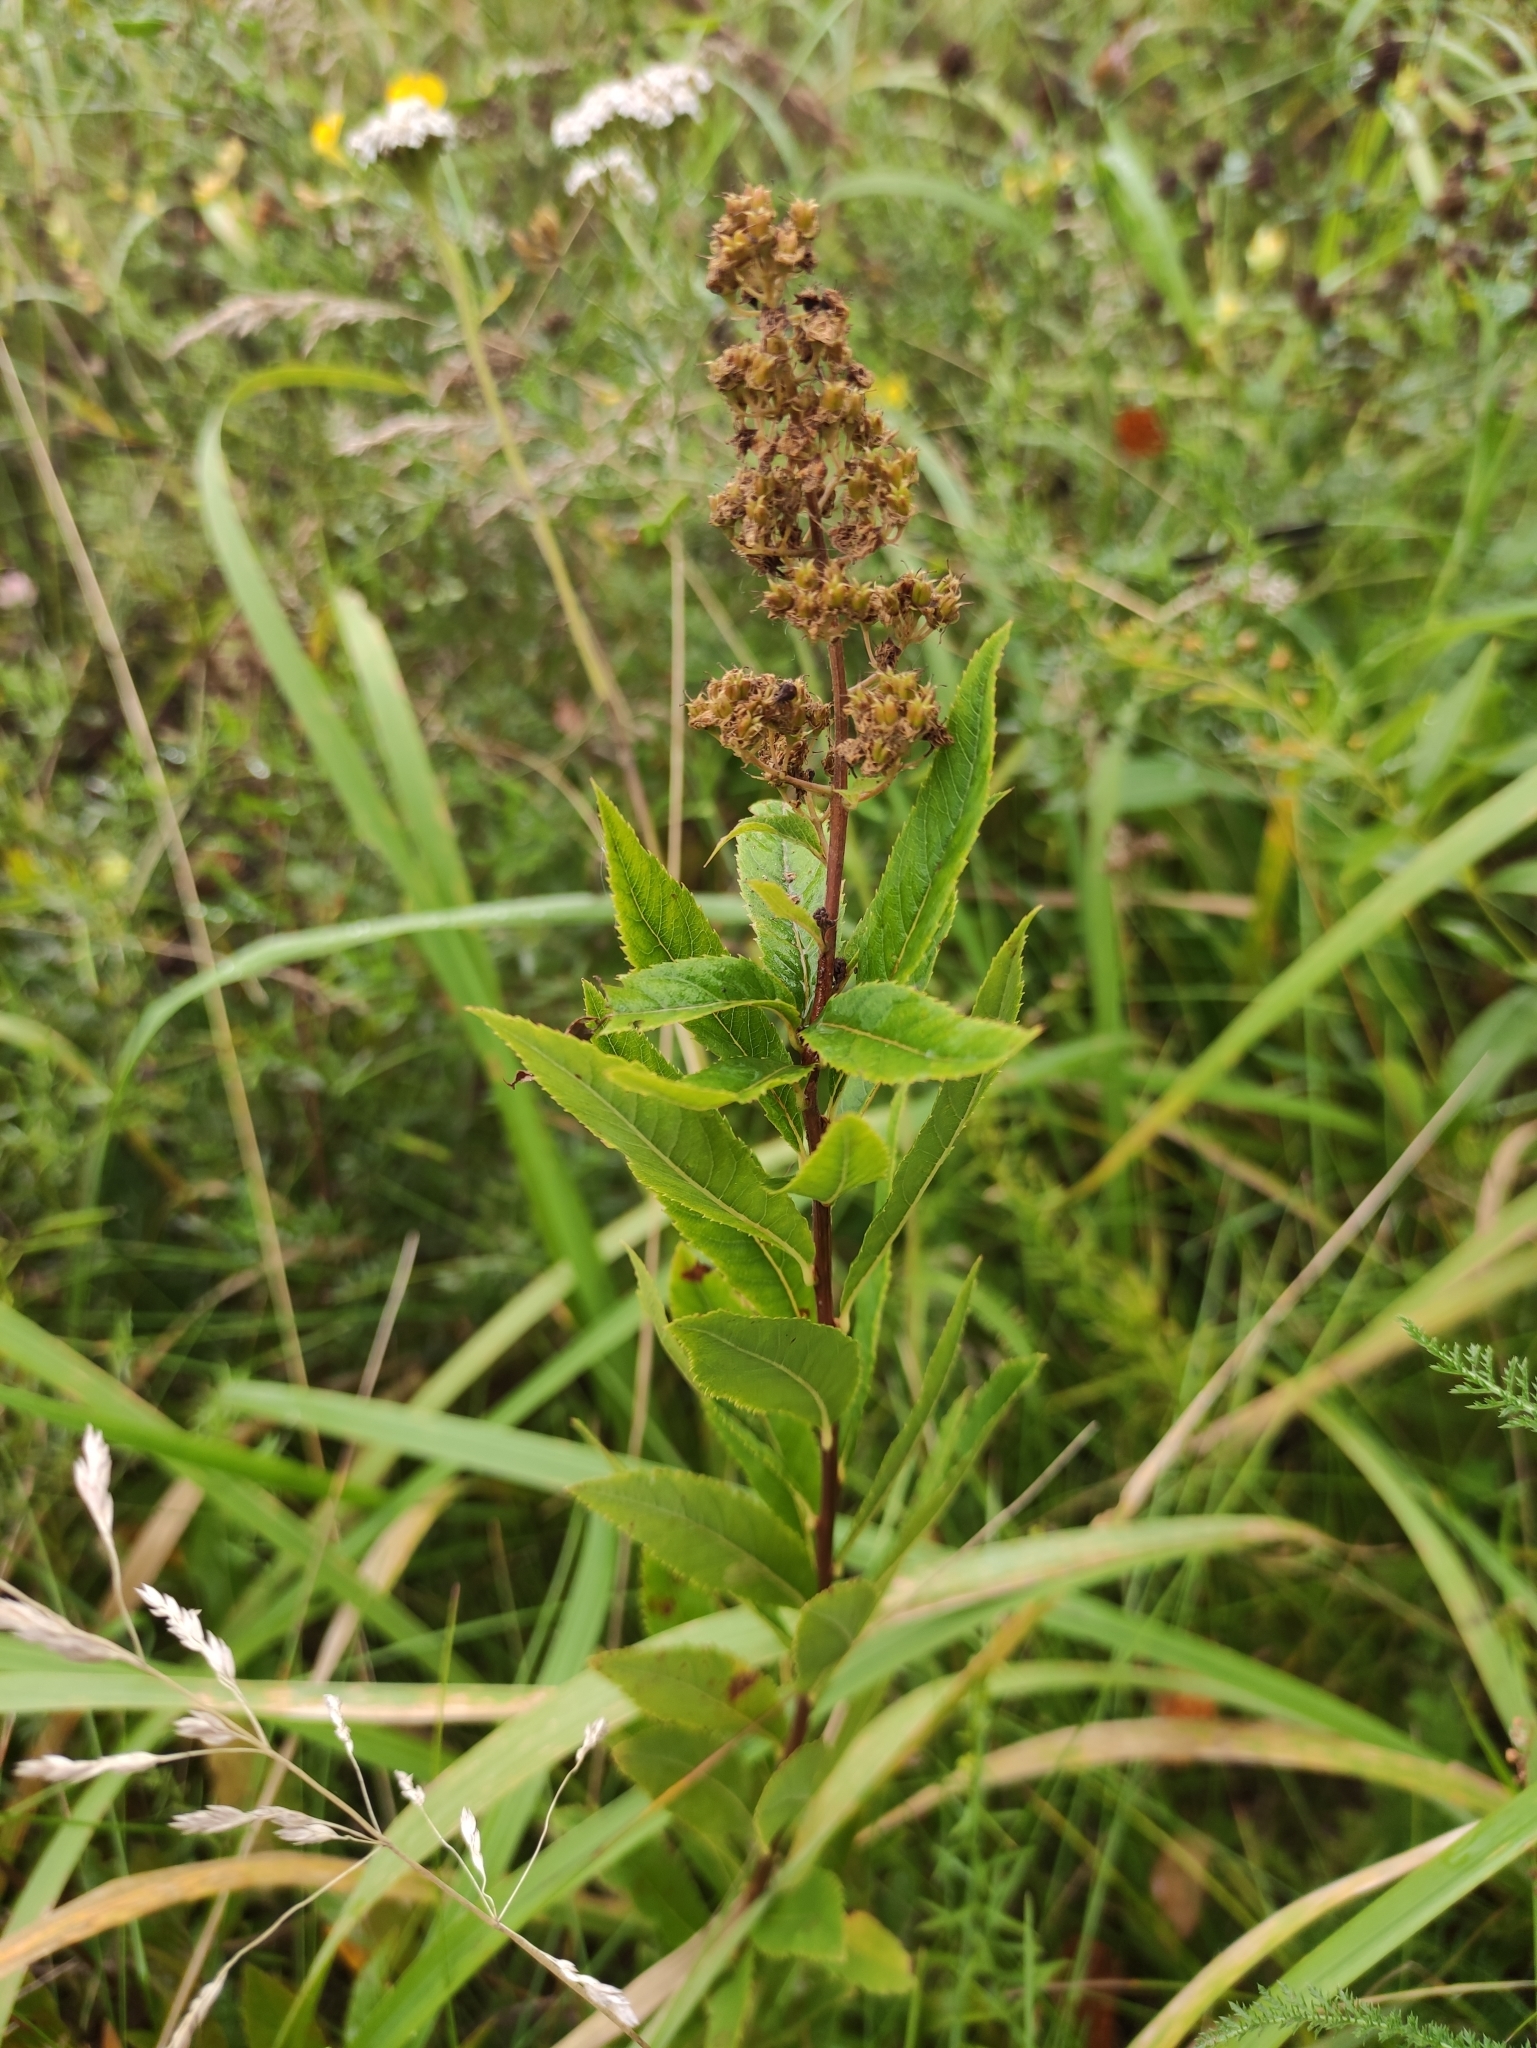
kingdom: Plantae
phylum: Tracheophyta
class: Magnoliopsida
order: Rosales
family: Rosaceae
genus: Spiraea
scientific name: Spiraea salicifolia
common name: Bridewort
